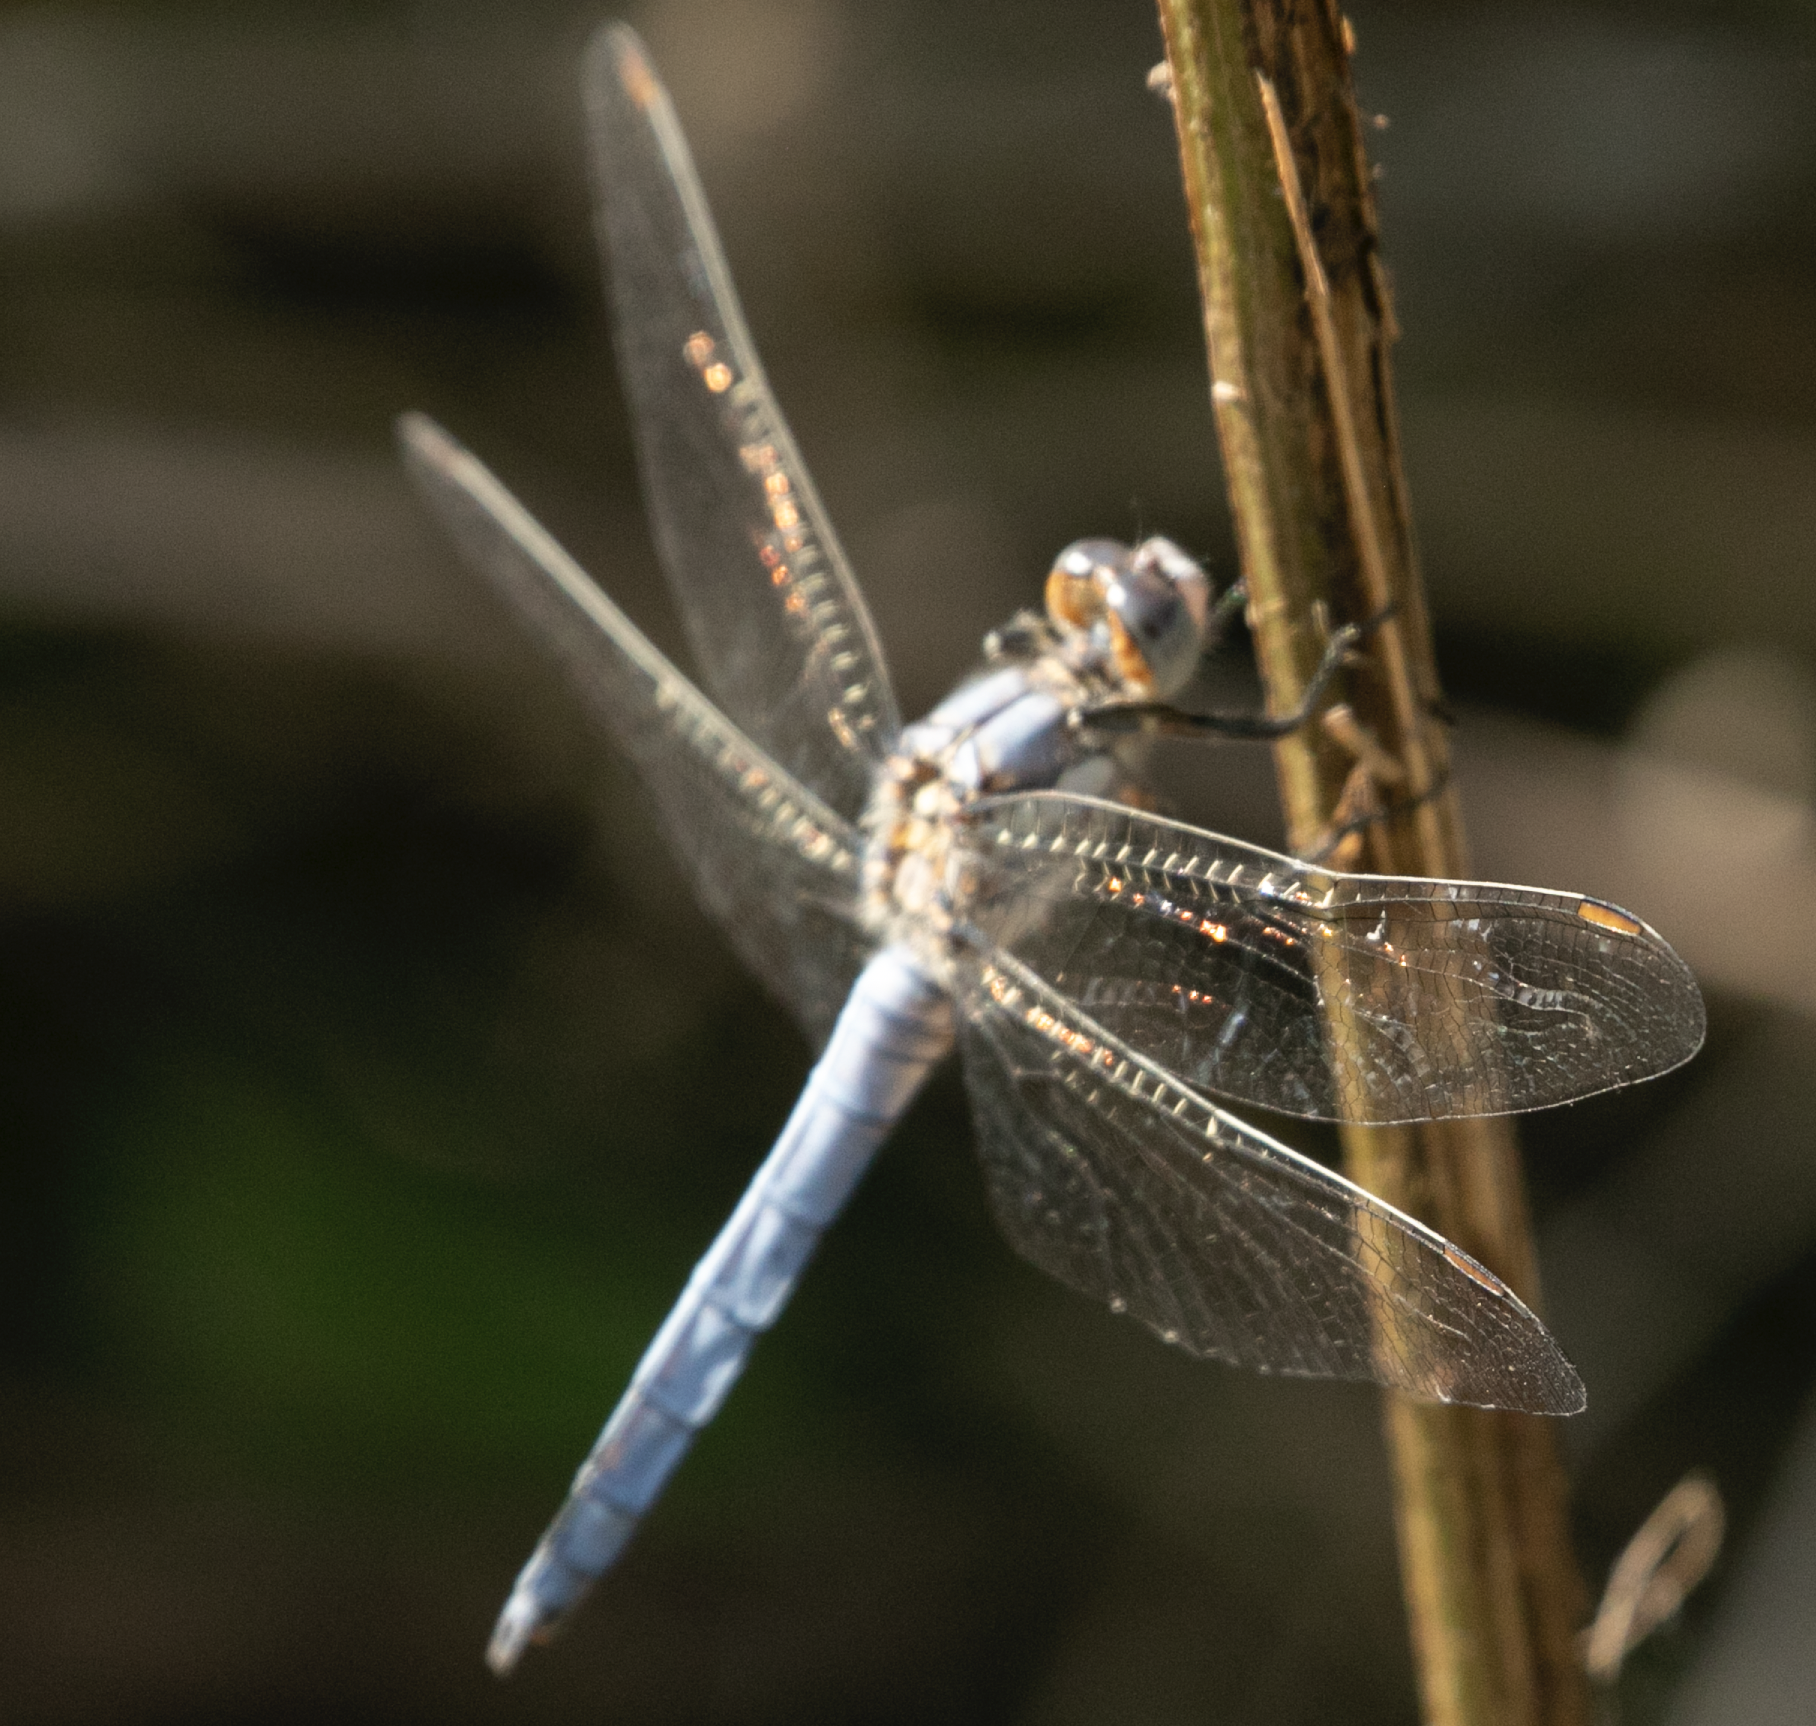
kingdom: Animalia
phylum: Arthropoda
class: Insecta
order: Odonata
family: Libellulidae
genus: Orthetrum
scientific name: Orthetrum brunneum
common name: Southern skimmer
